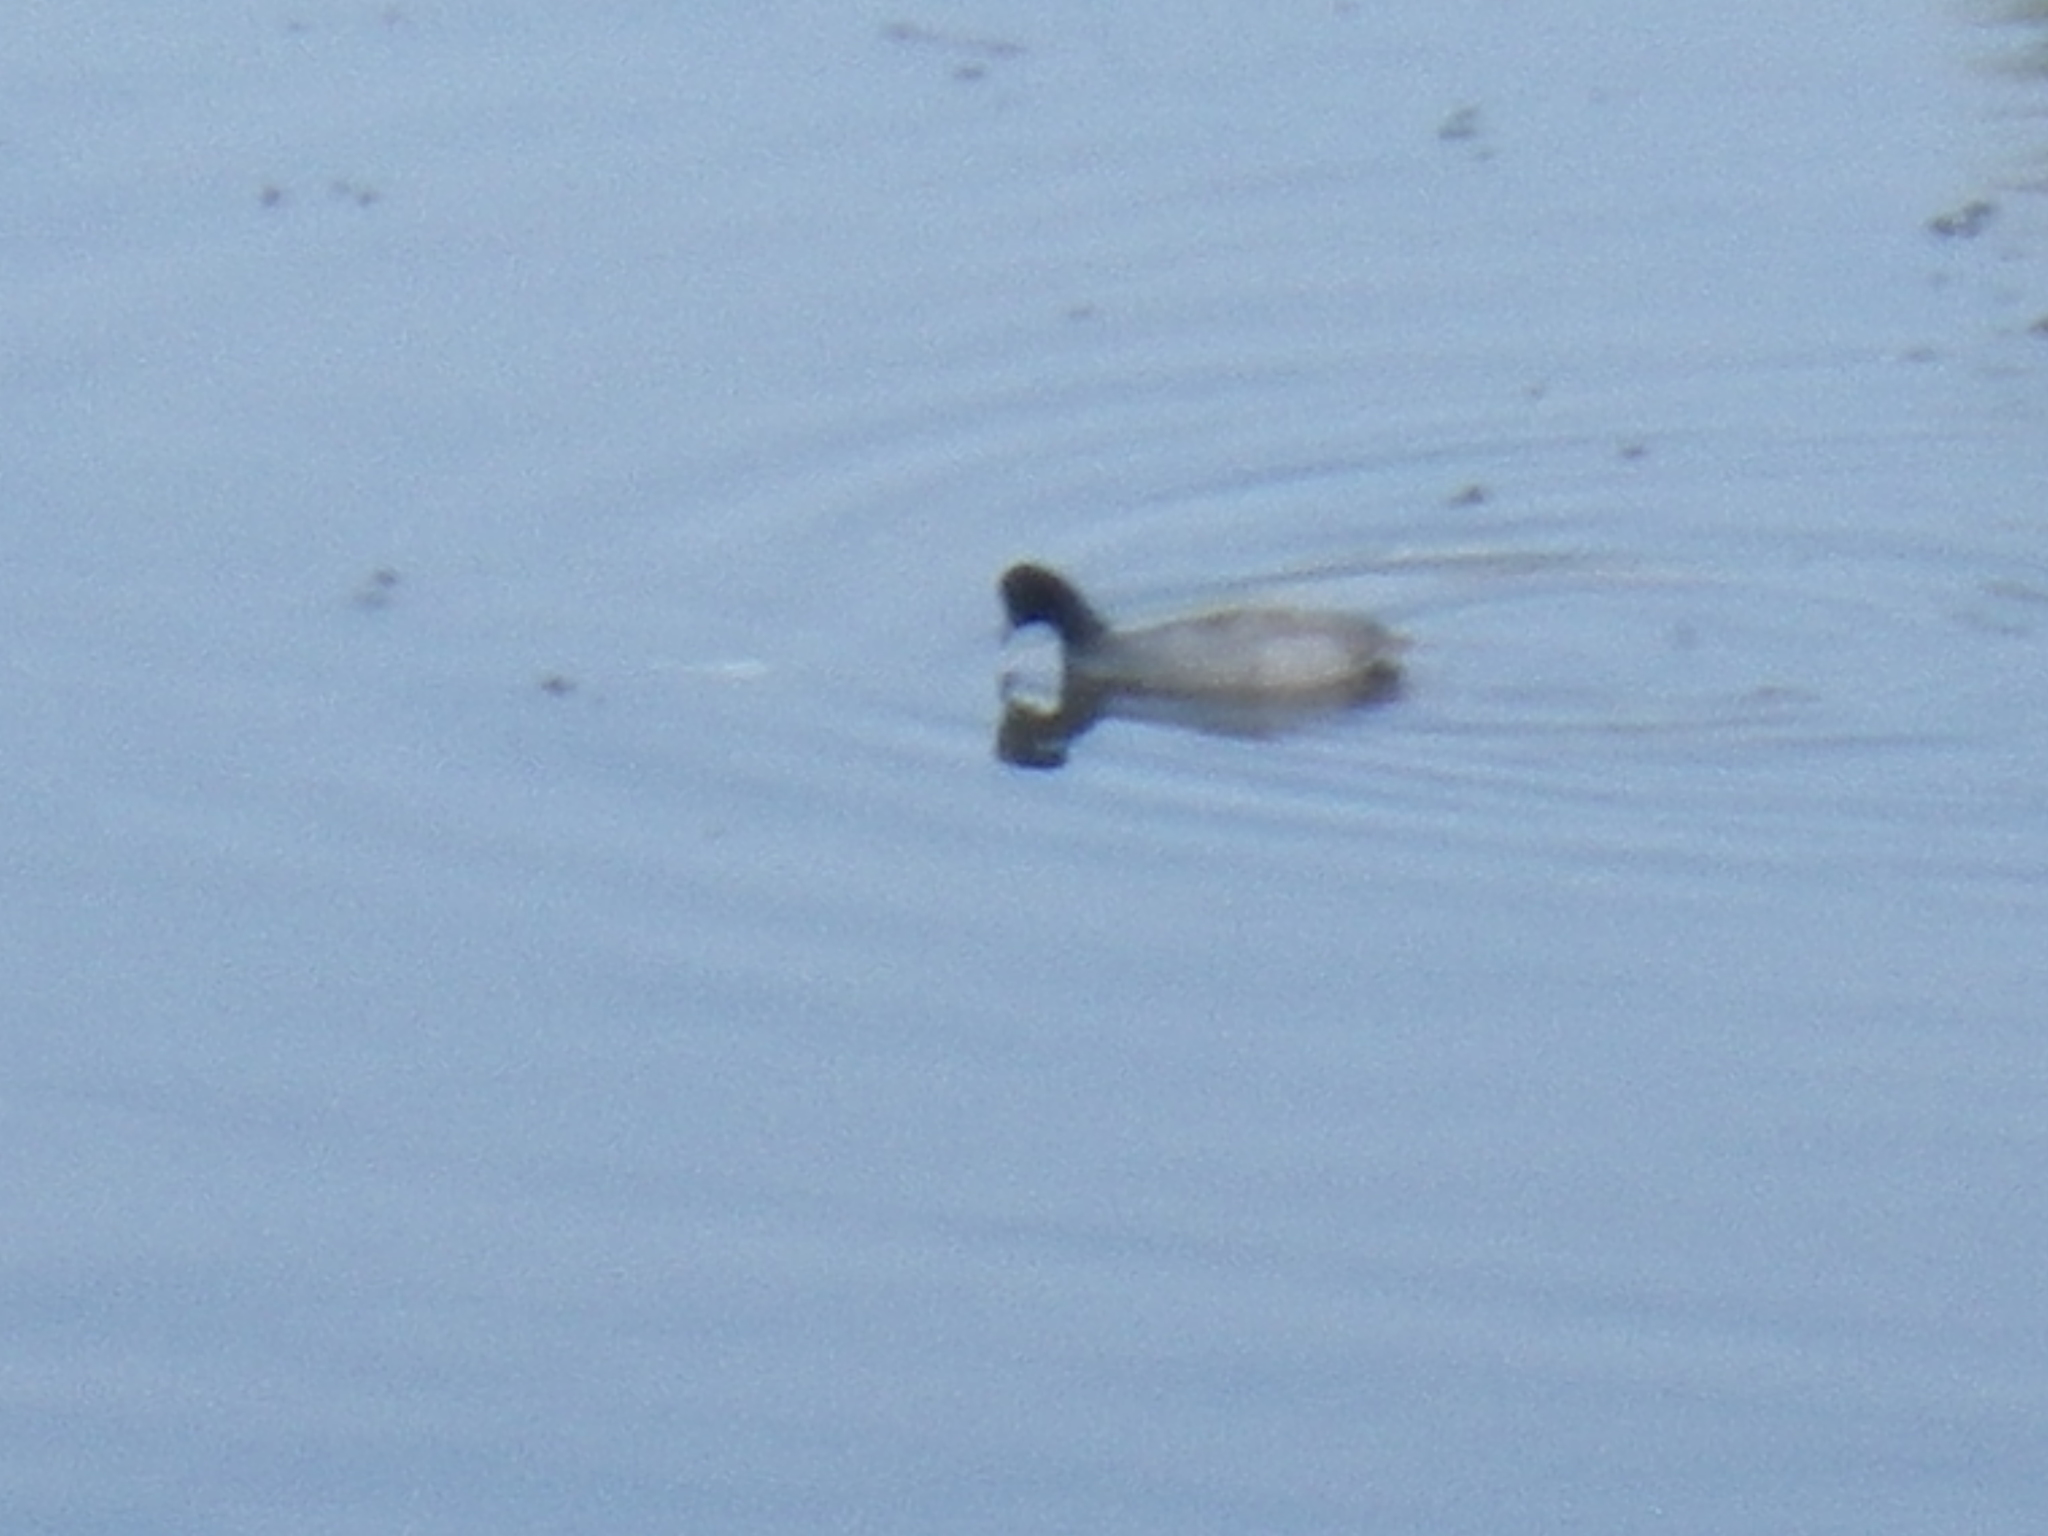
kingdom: Animalia
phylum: Chordata
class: Aves
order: Gruiformes
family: Rallidae
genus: Fulica
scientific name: Fulica americana
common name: American coot
